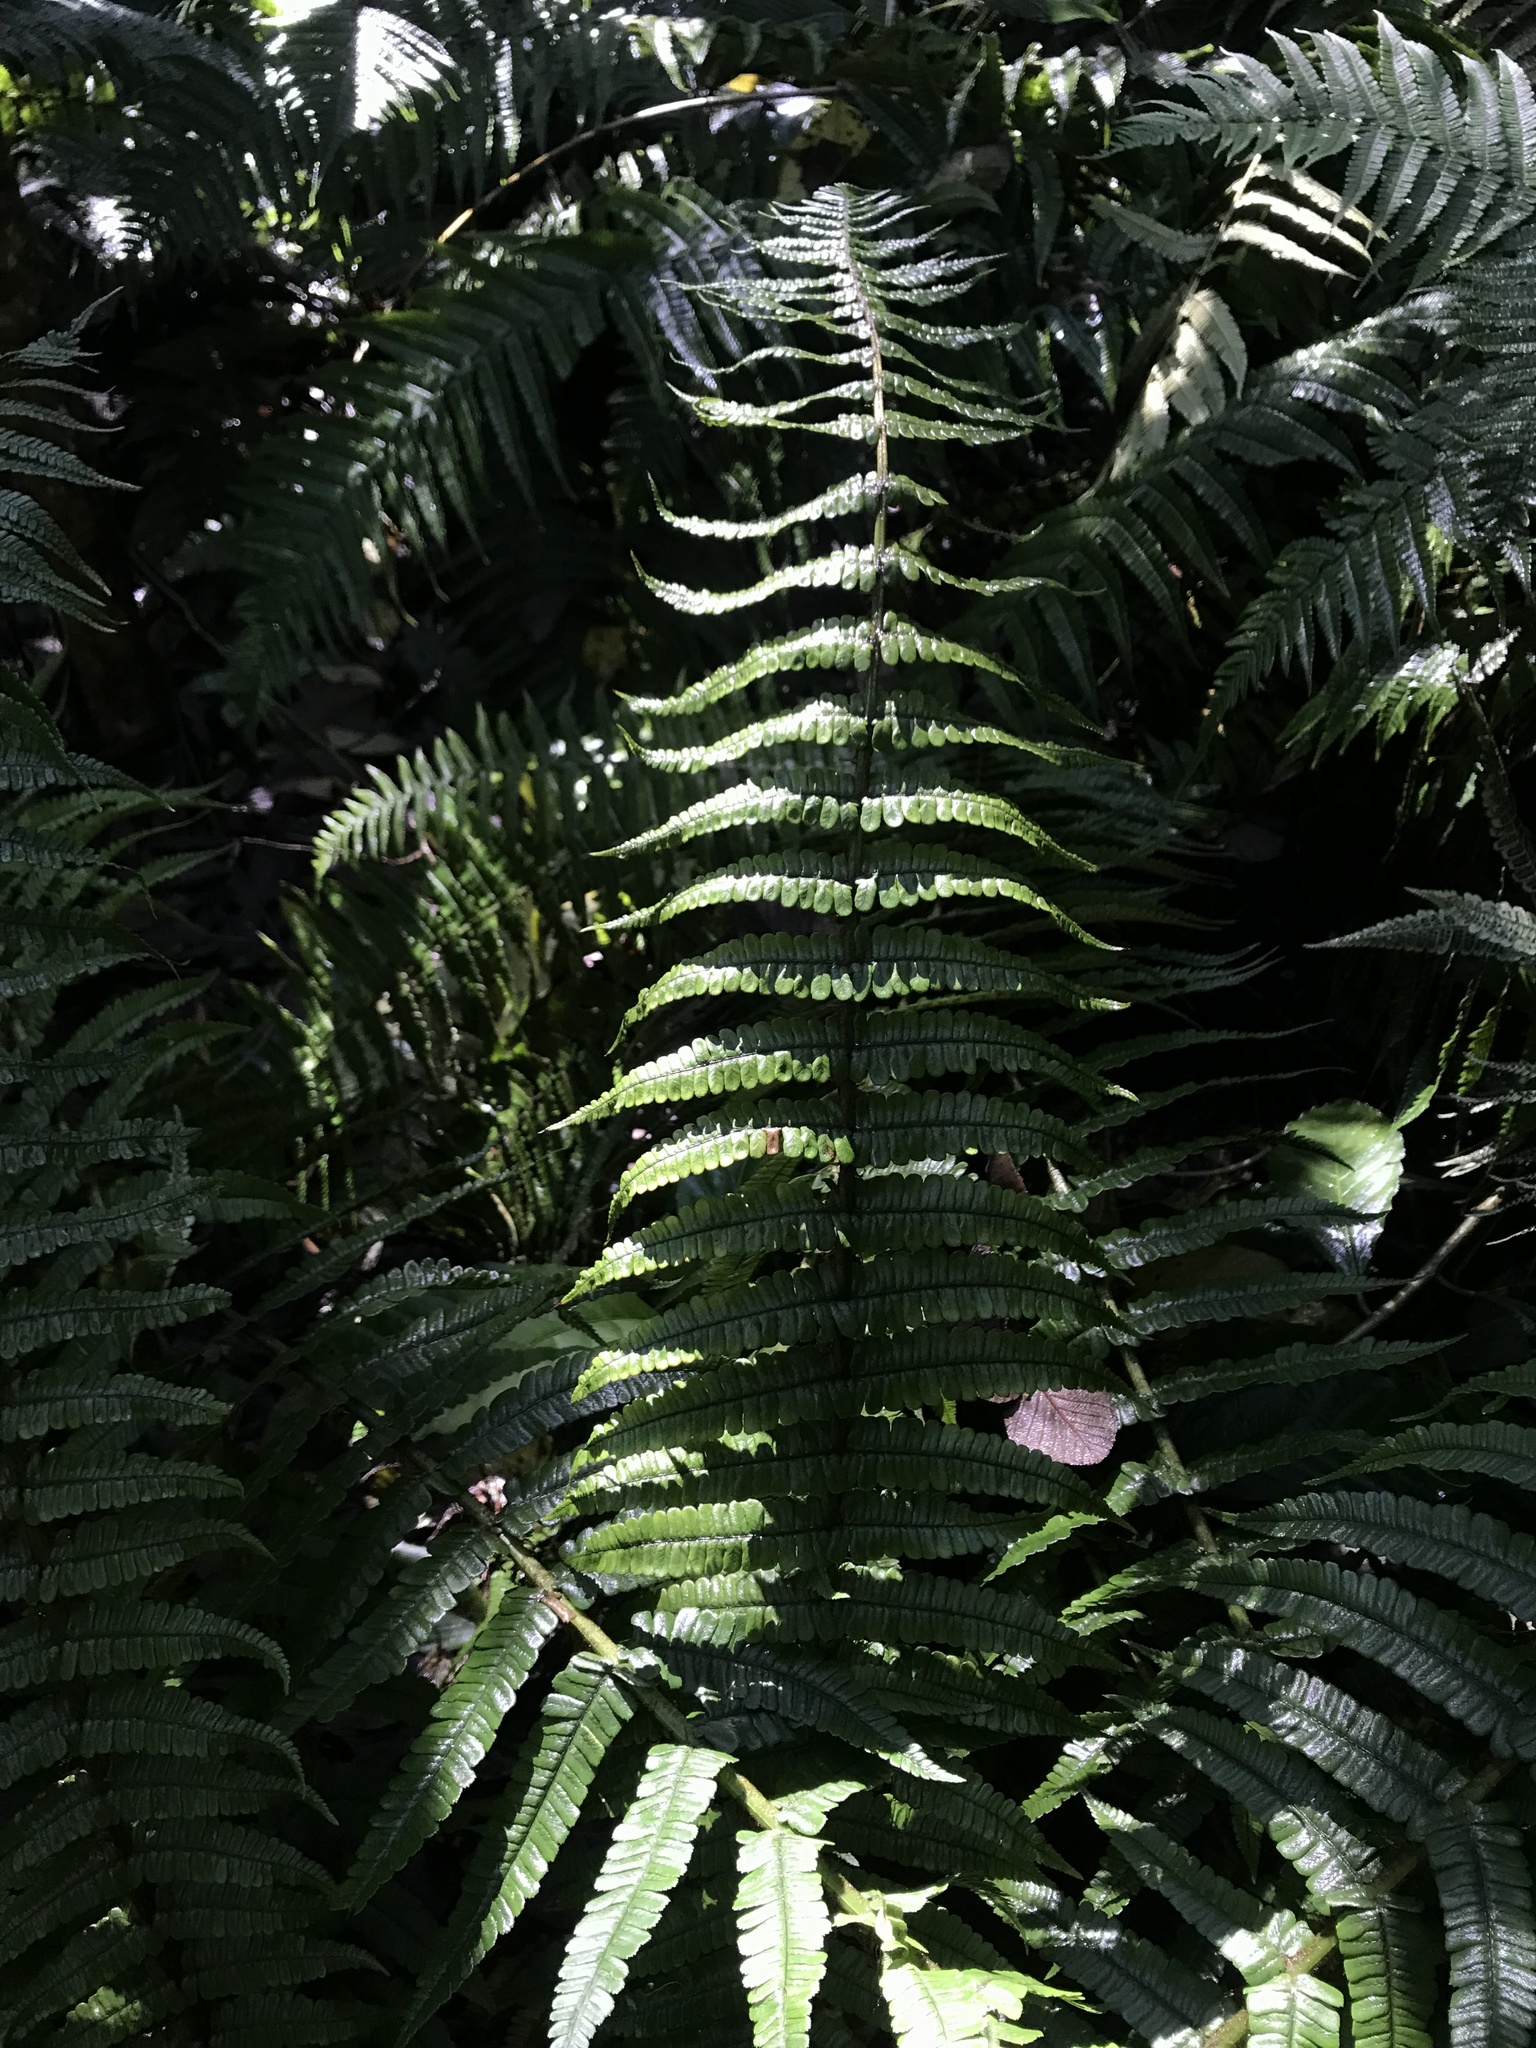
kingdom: Plantae
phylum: Tracheophyta
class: Polypodiopsida
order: Polypodiales
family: Dryopteridaceae
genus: Dryopteris
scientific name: Dryopteris wallichiana
